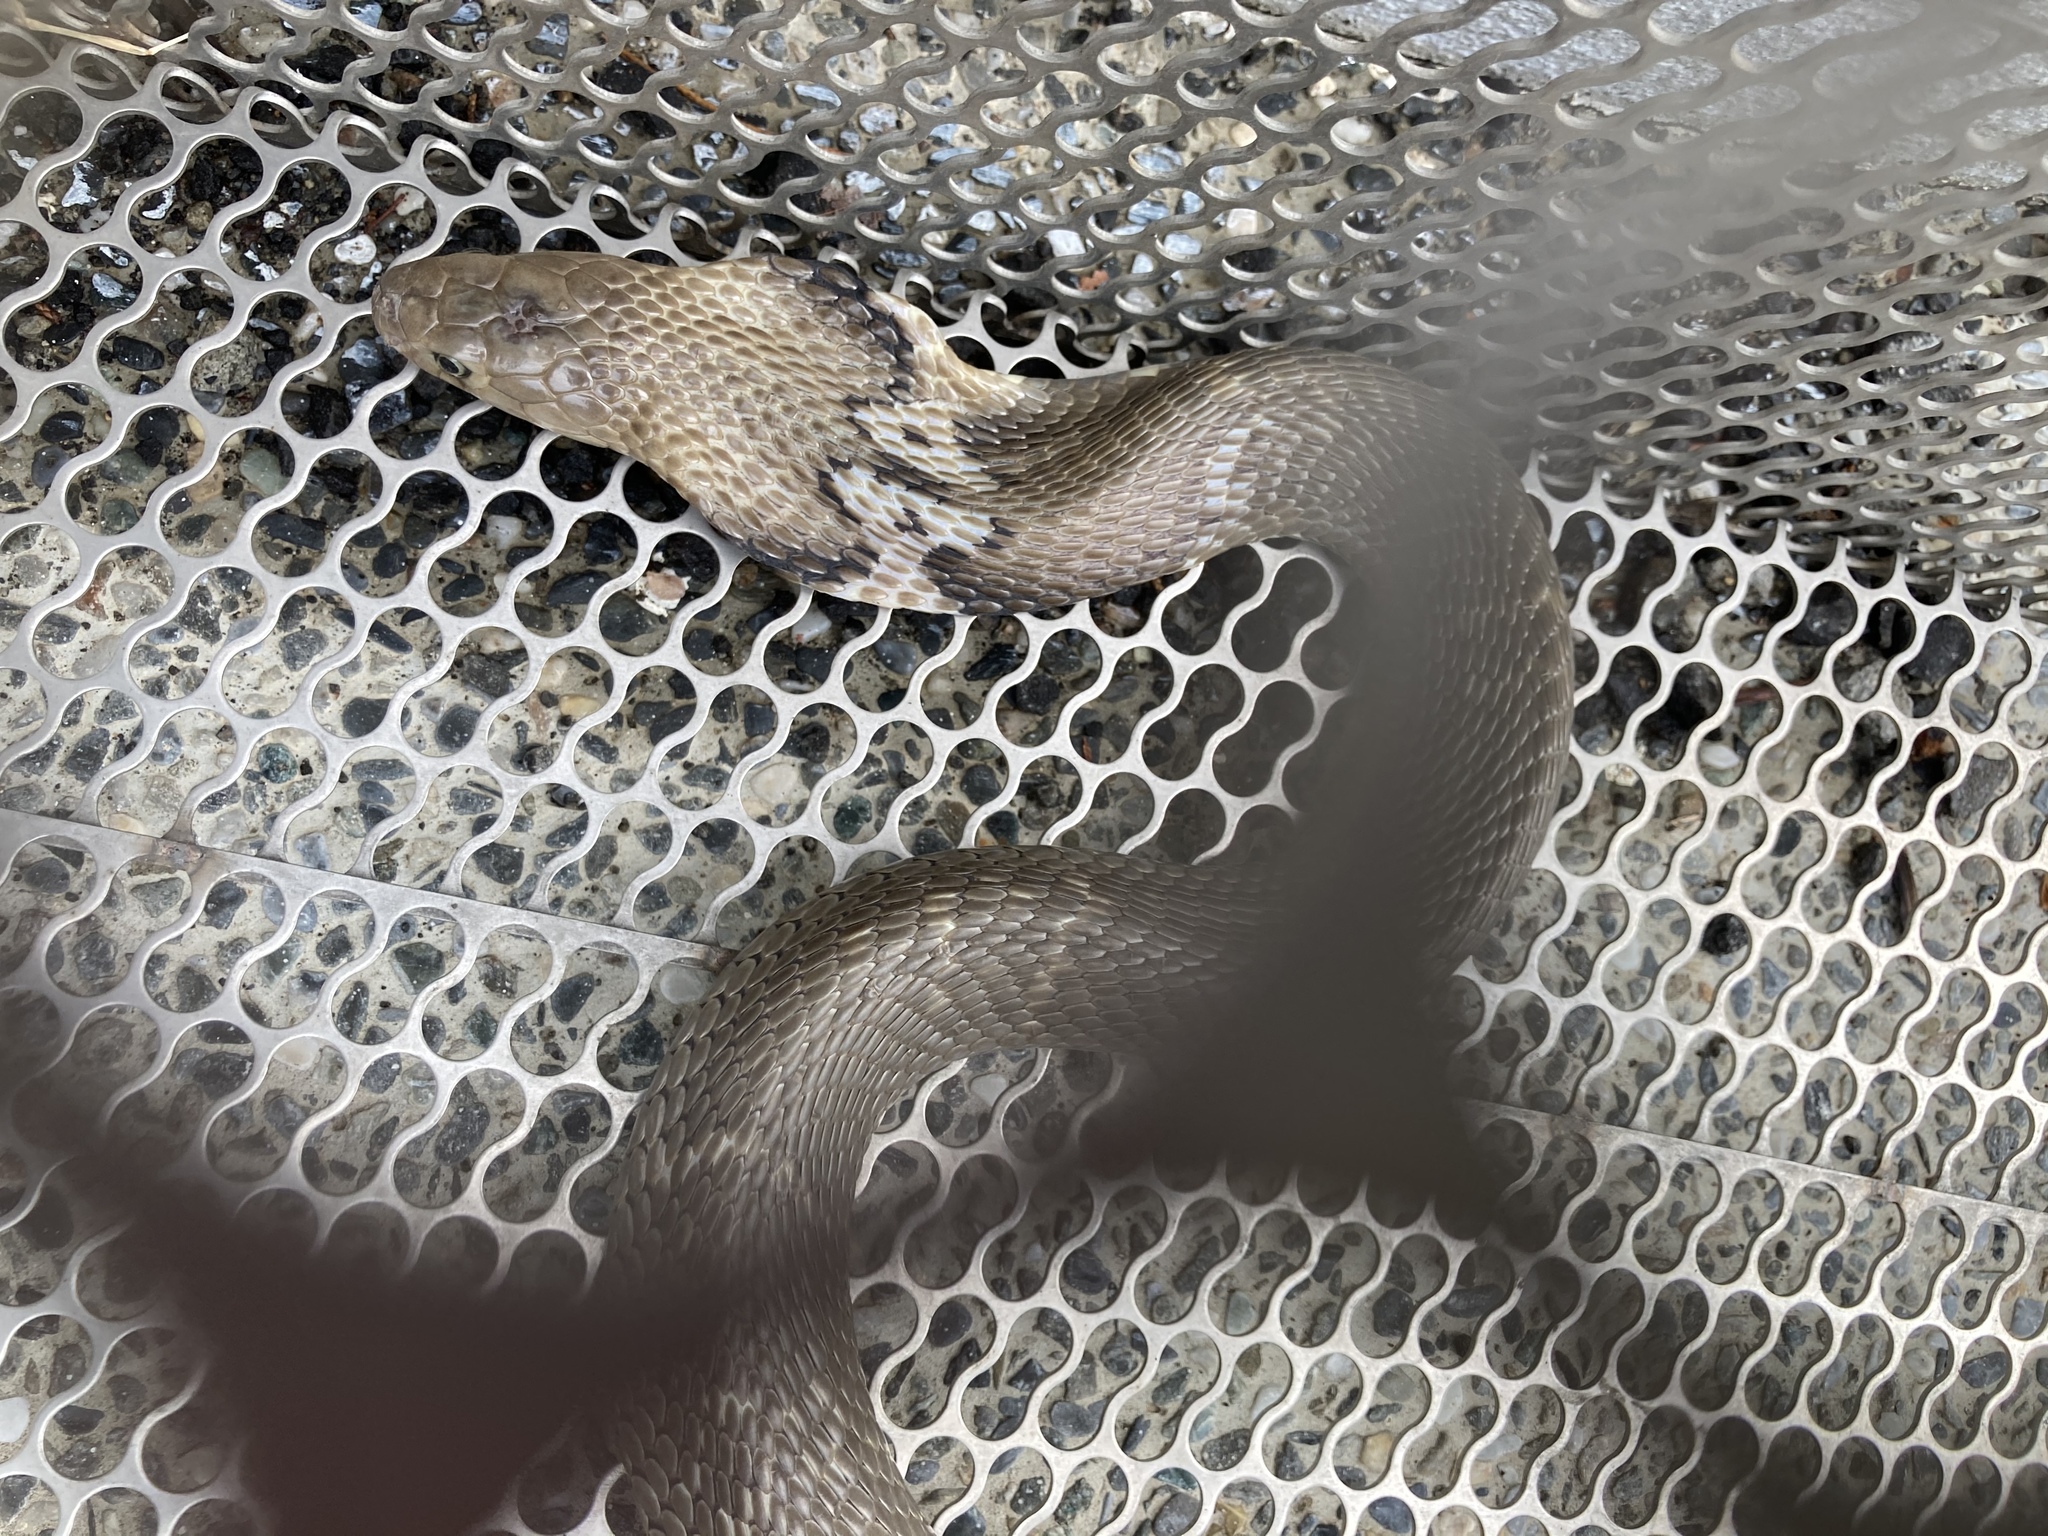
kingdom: Animalia
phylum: Chordata
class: Squamata
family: Elapidae
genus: Naja
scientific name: Naja atra
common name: Chinese cobra
